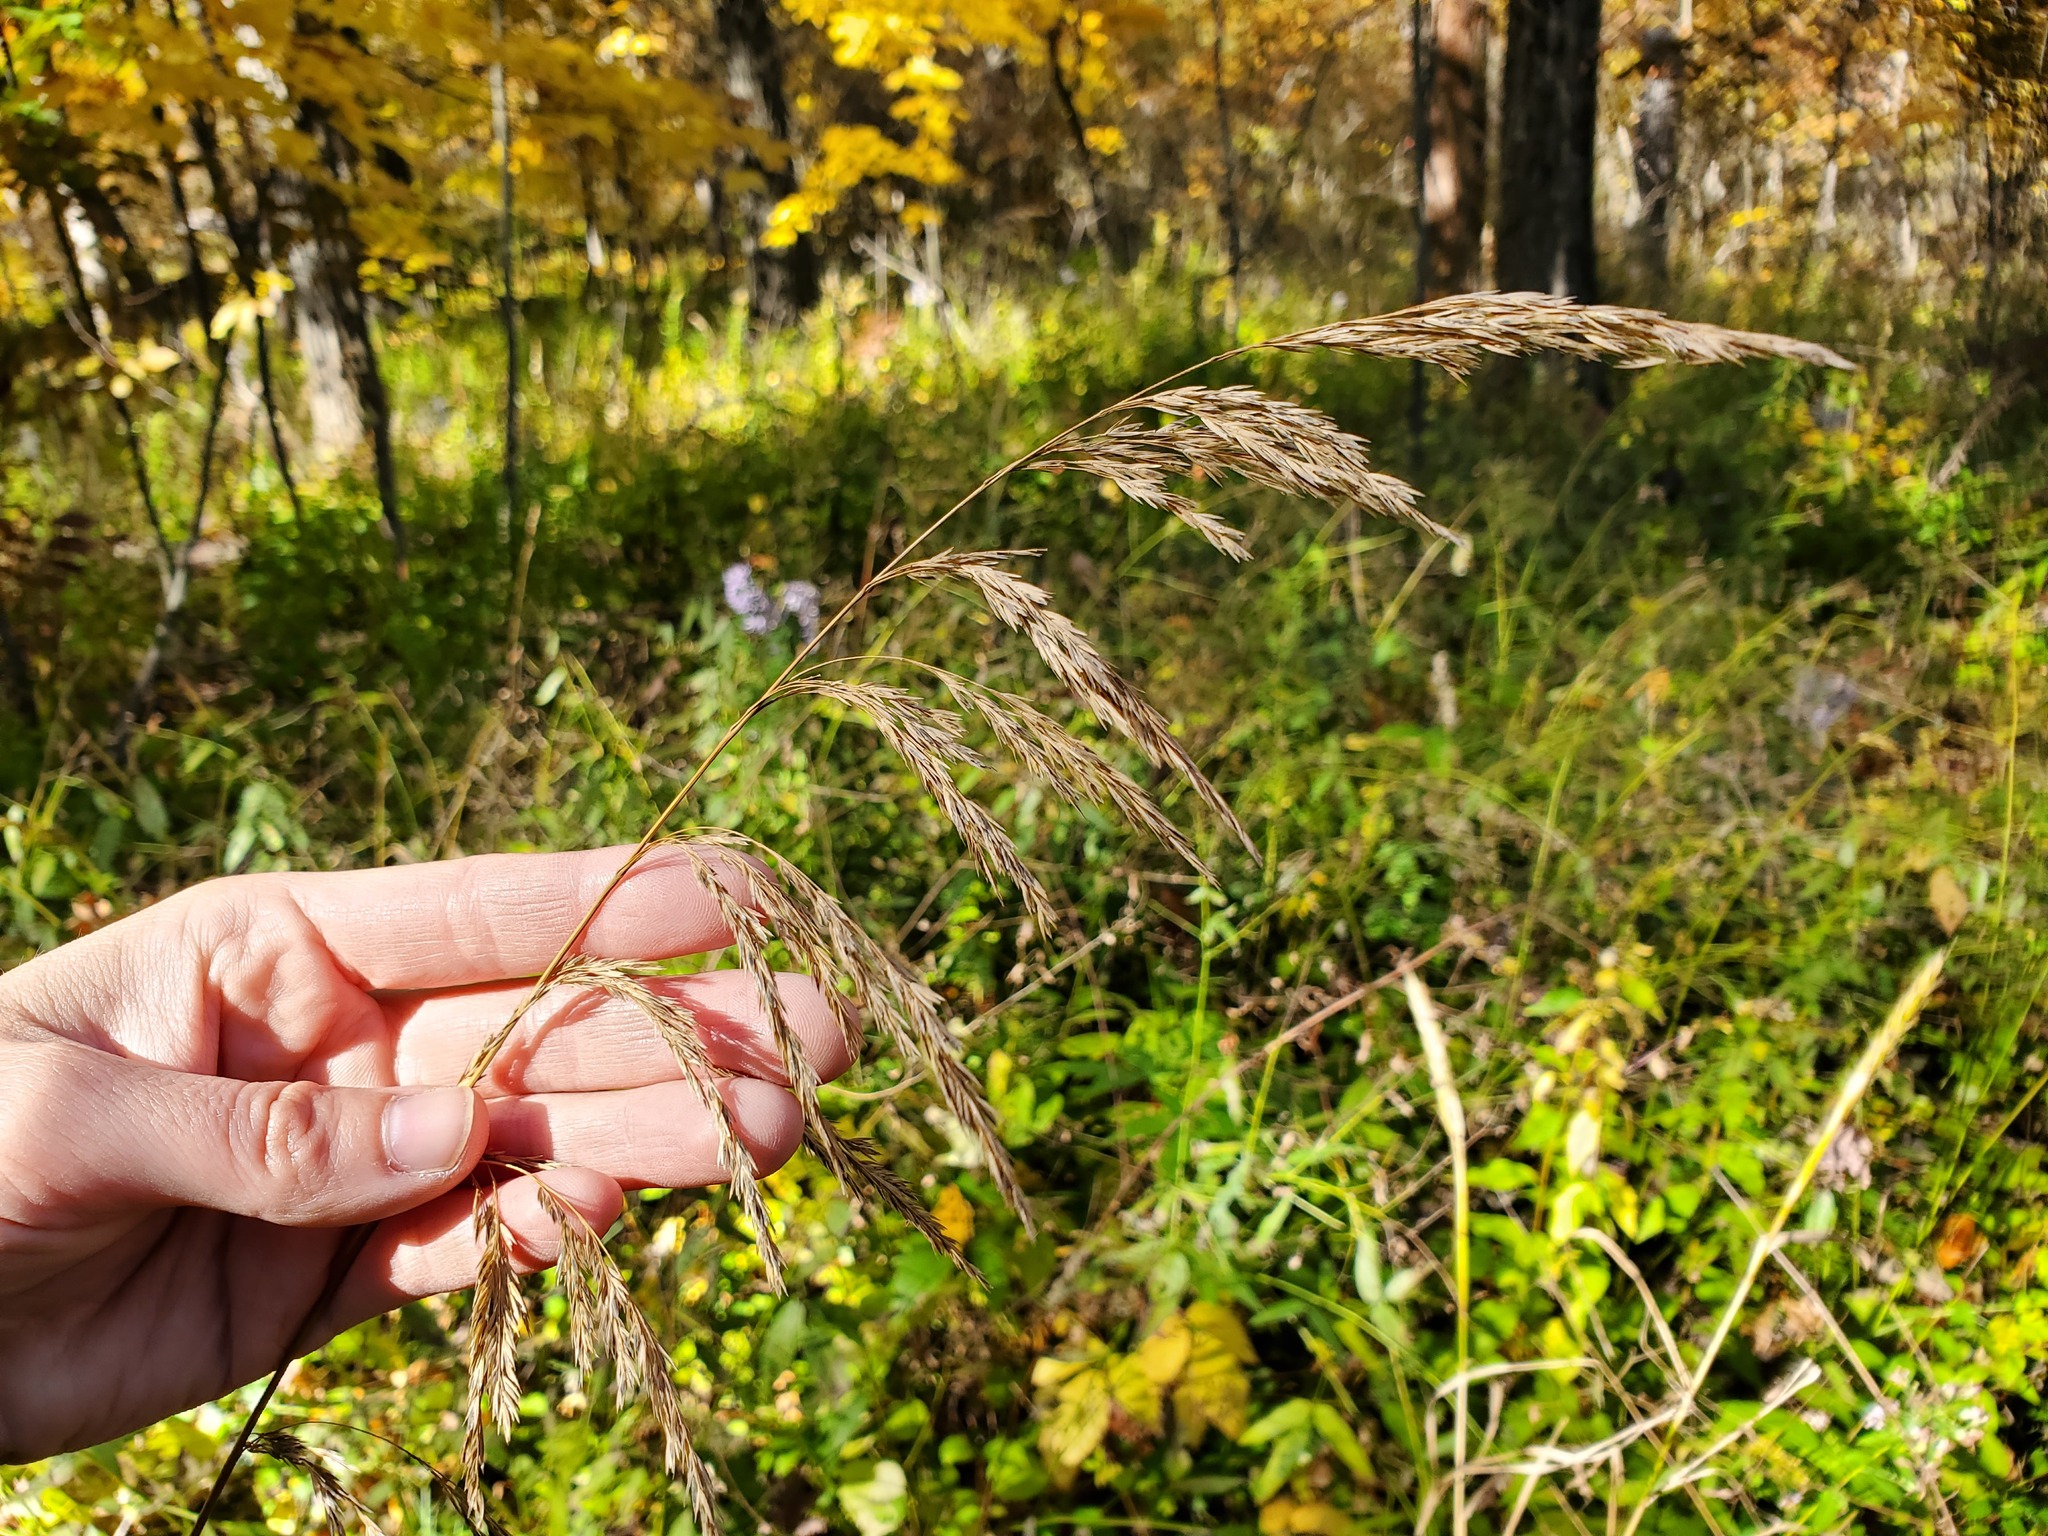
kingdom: Plantae
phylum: Tracheophyta
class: Liliopsida
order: Poales
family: Poaceae
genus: Cinna
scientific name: Cinna arundinacea
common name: Stout woodreed
